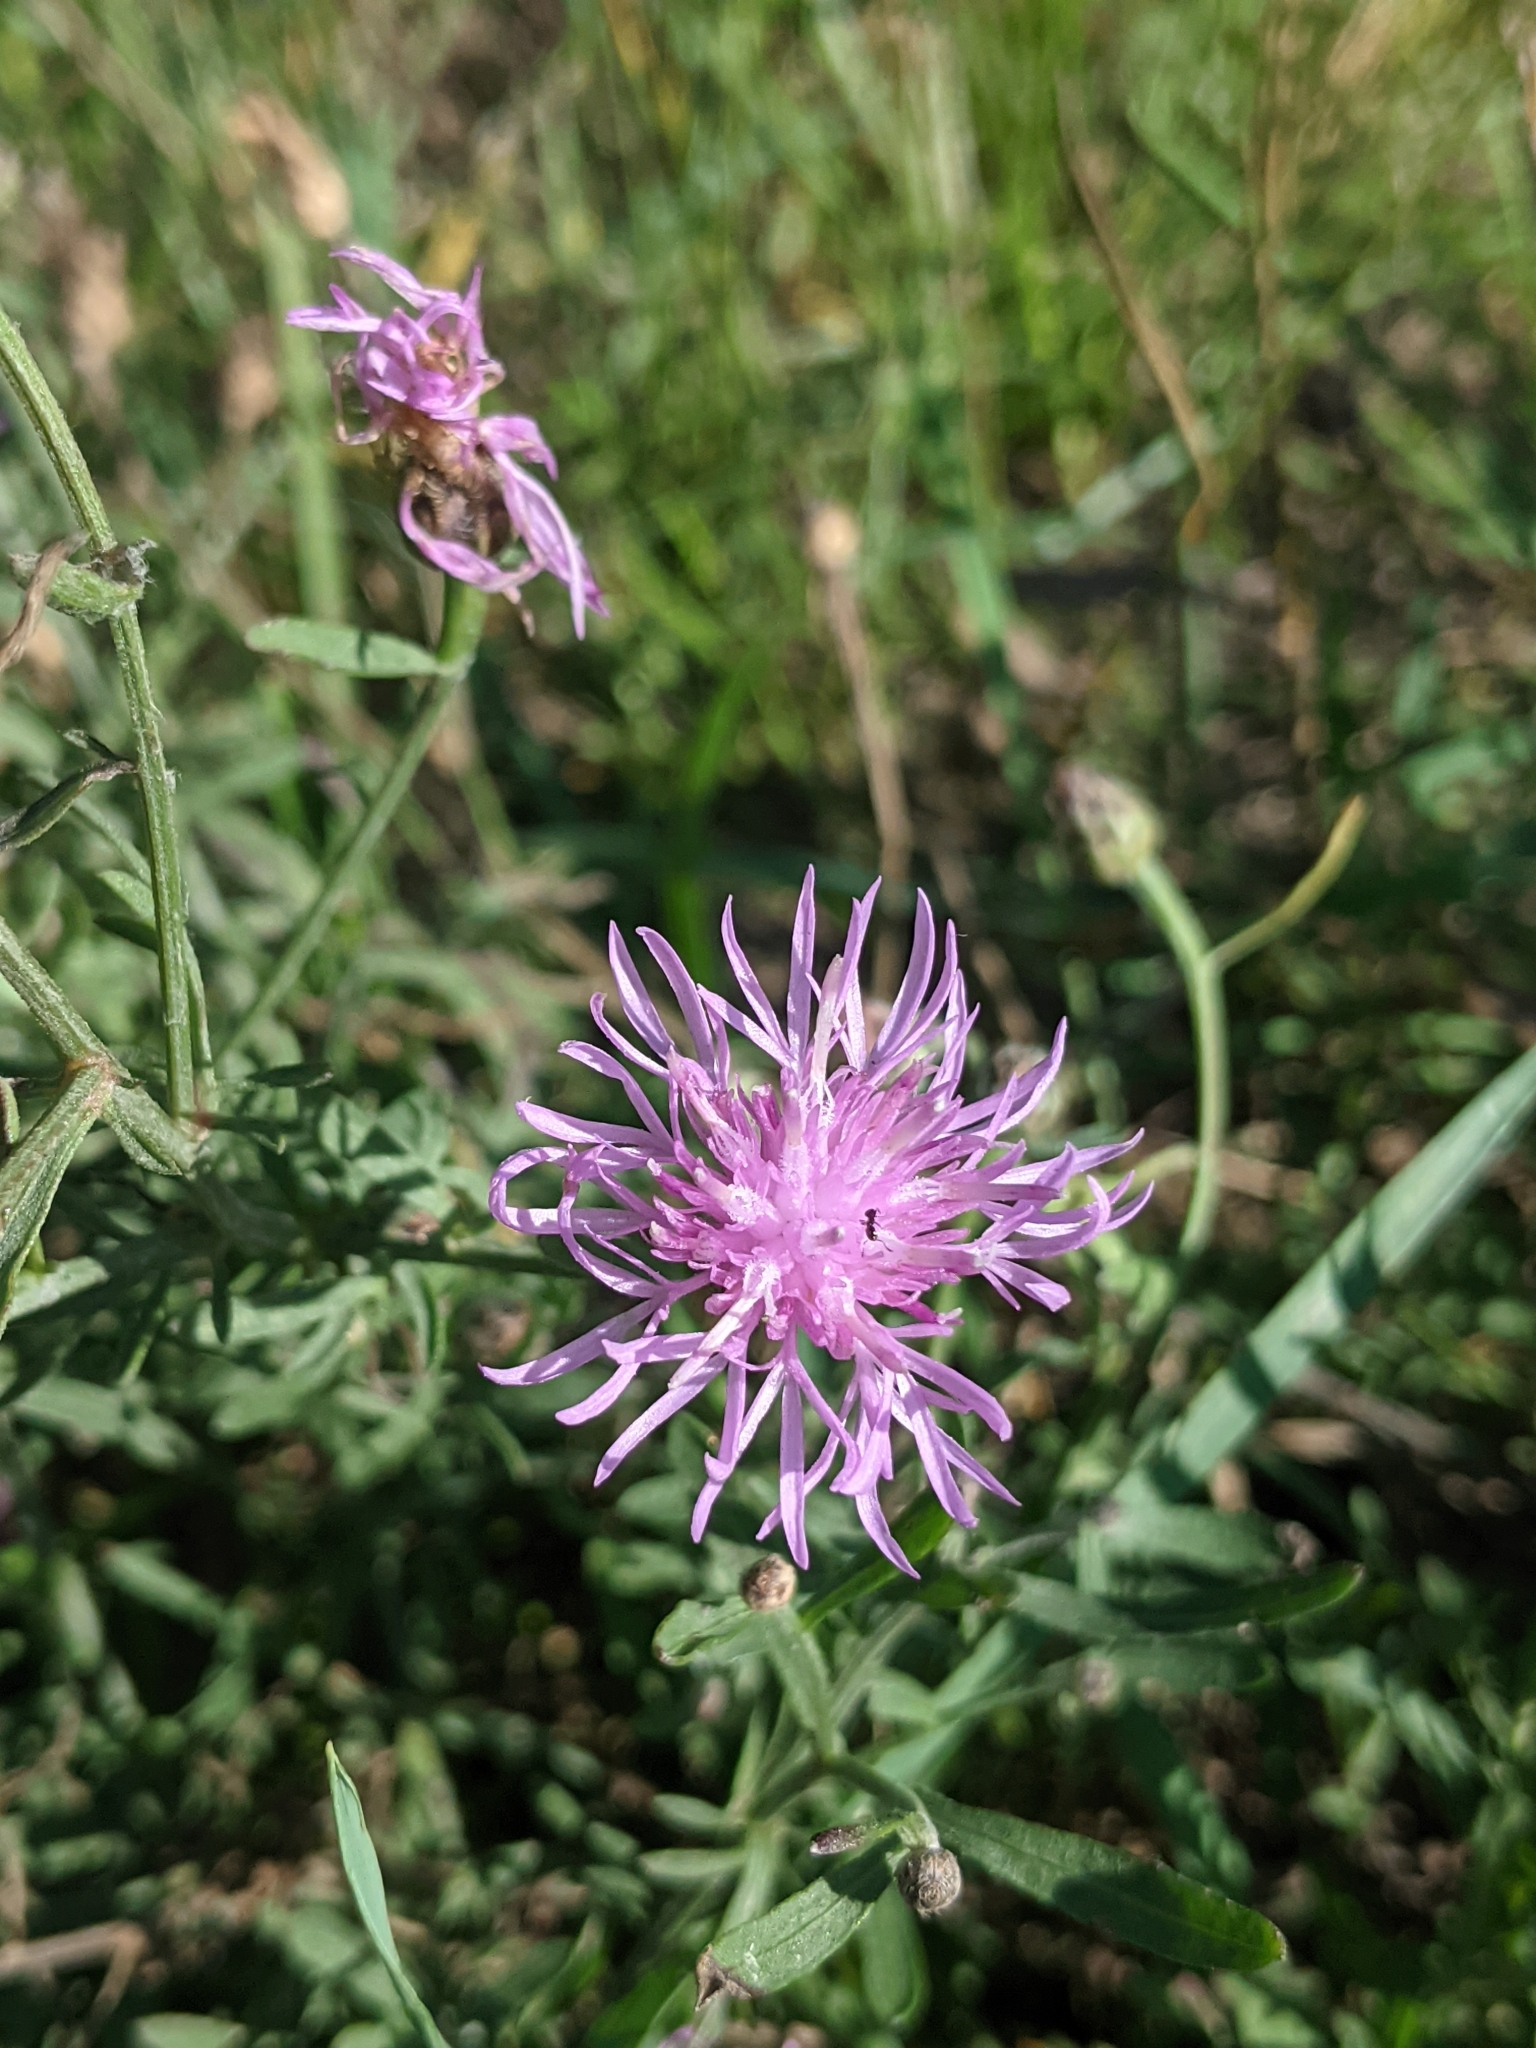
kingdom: Plantae
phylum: Tracheophyta
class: Magnoliopsida
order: Asterales
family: Asteraceae
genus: Centaurea
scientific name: Centaurea stoebe
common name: Spotted knapweed
